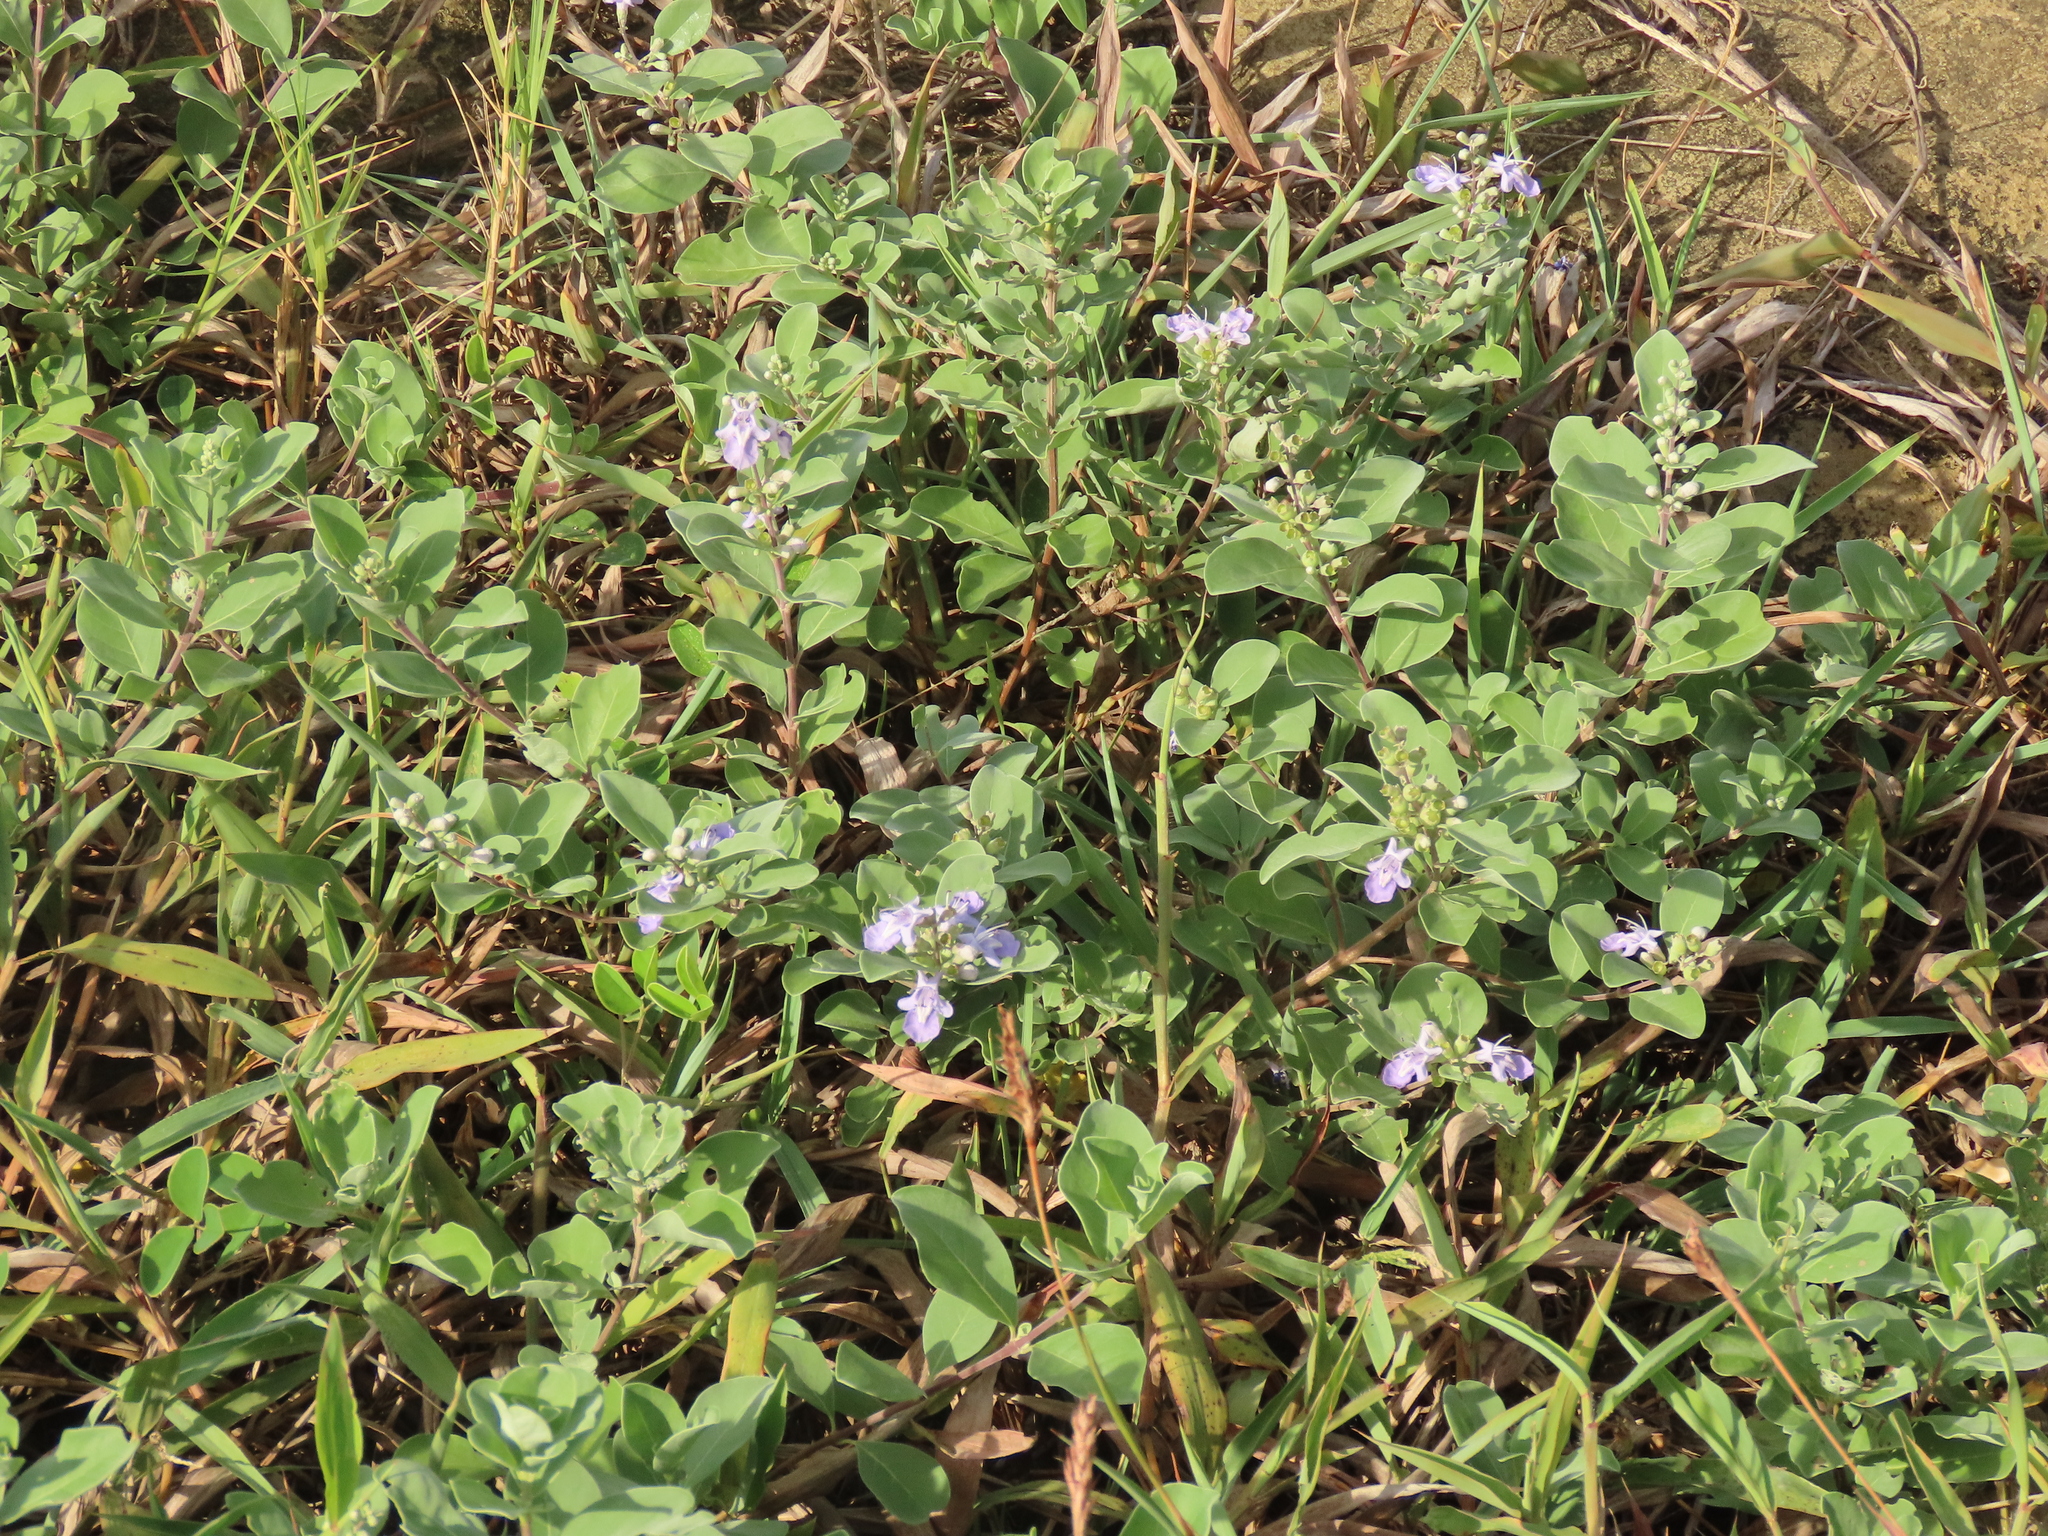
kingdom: Plantae
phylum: Tracheophyta
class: Magnoliopsida
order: Lamiales
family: Lamiaceae
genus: Vitex
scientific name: Vitex rotundifolia
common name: Beach vitex
